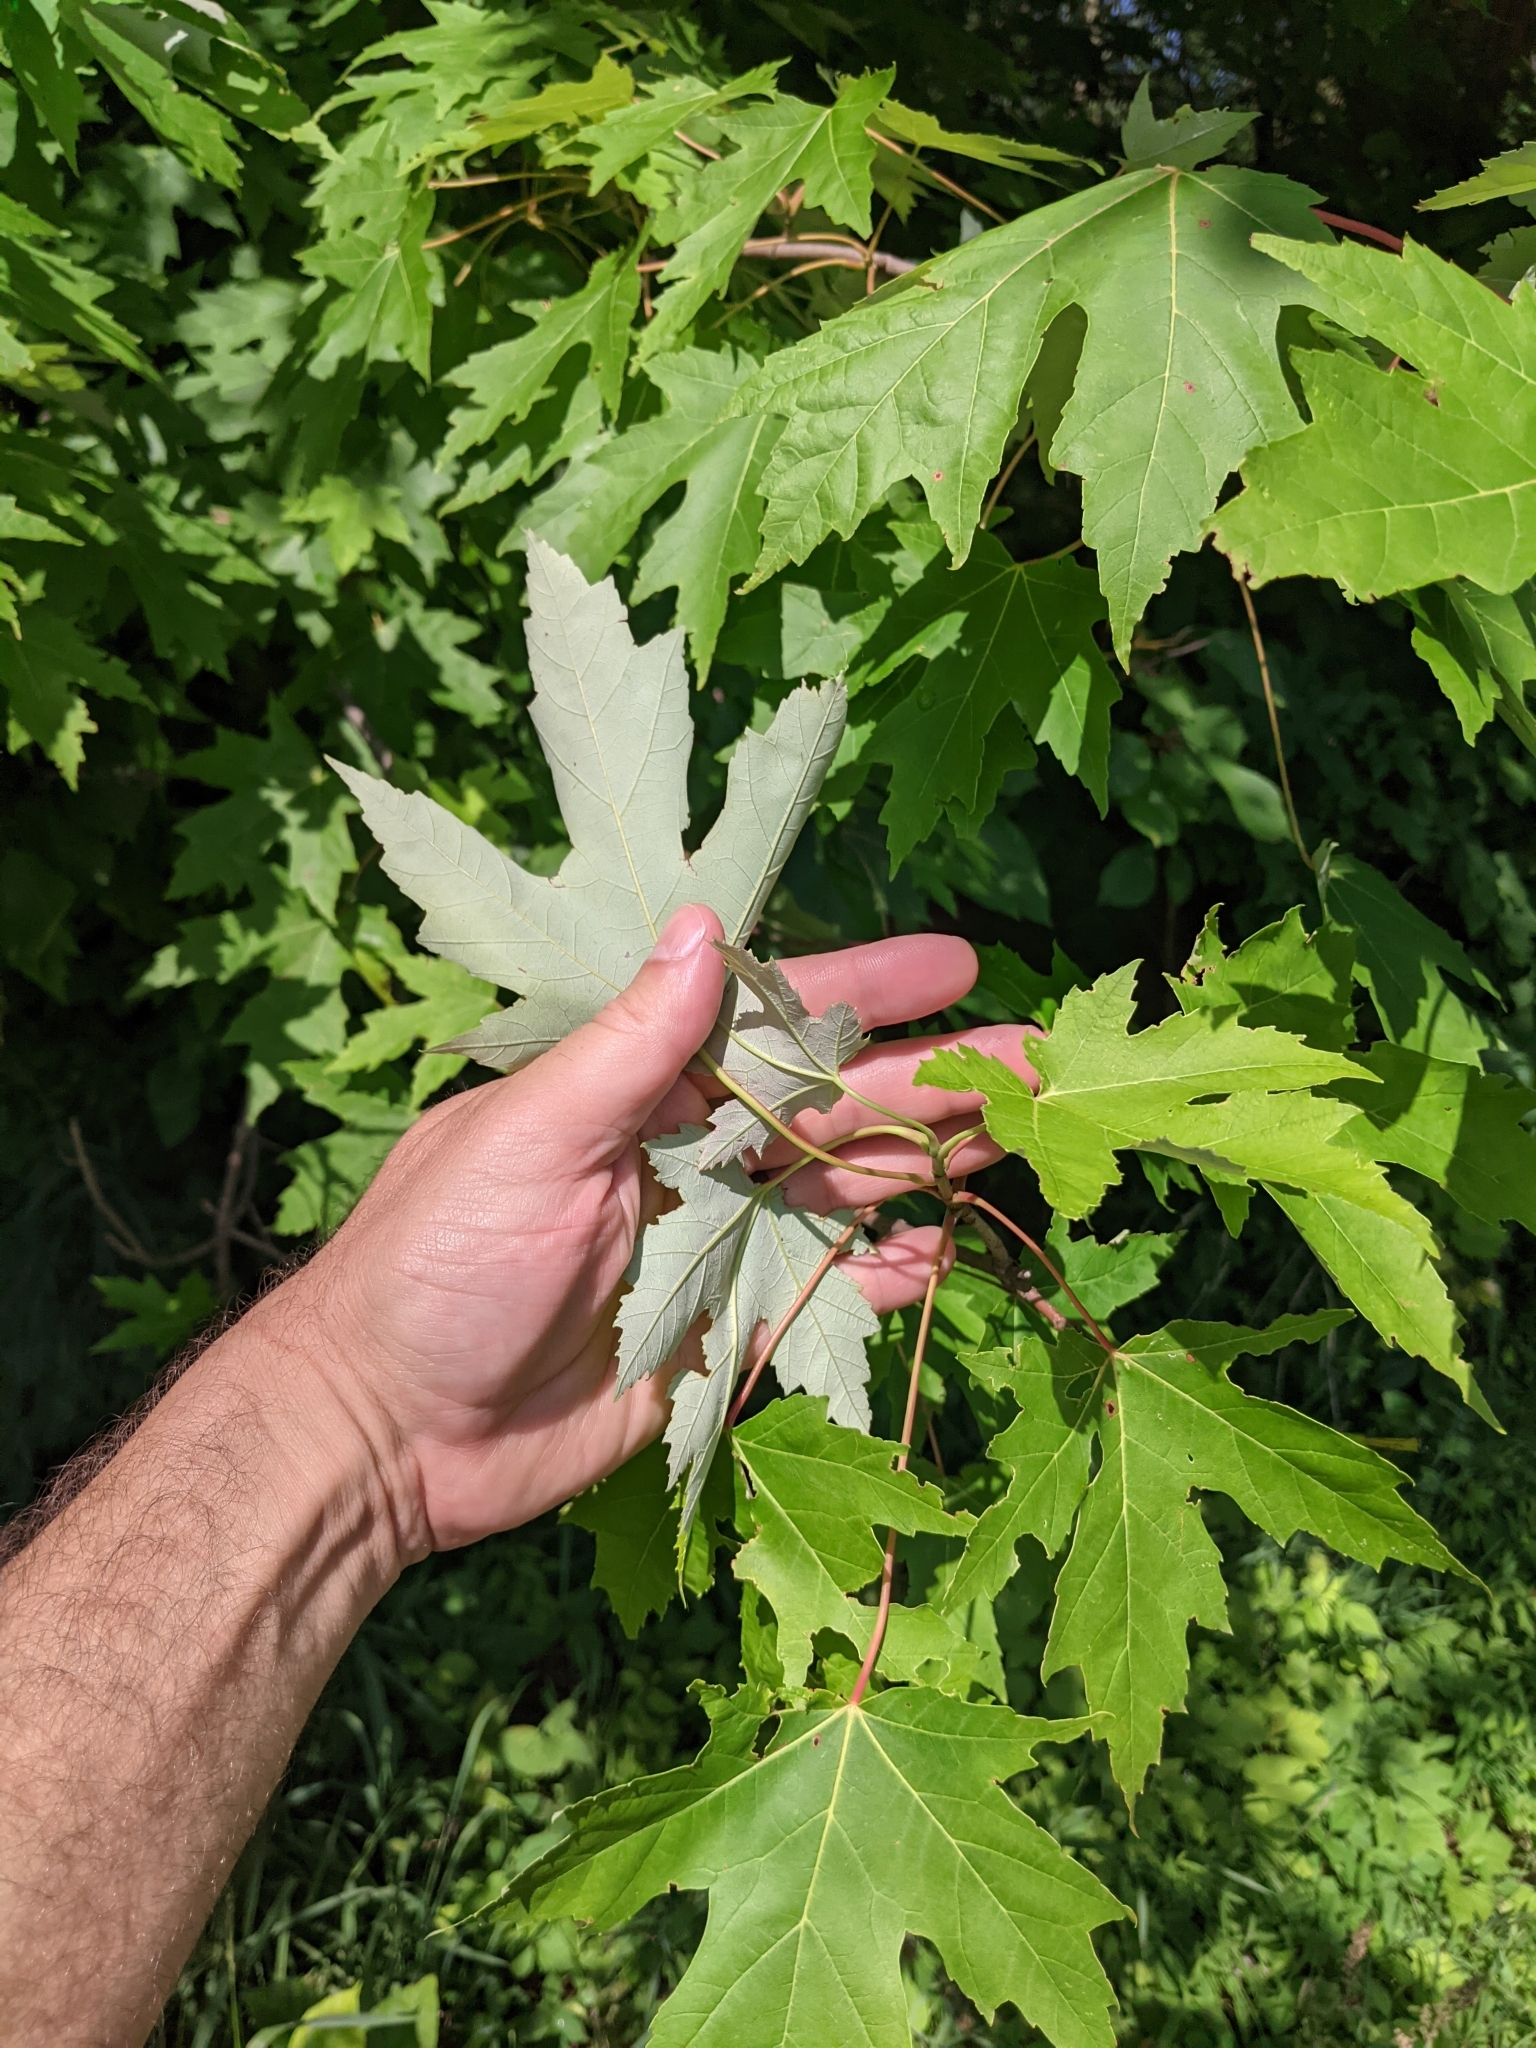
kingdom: Plantae
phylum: Tracheophyta
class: Magnoliopsida
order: Sapindales
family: Sapindaceae
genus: Acer
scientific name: Acer saccharinum
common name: Silver maple
